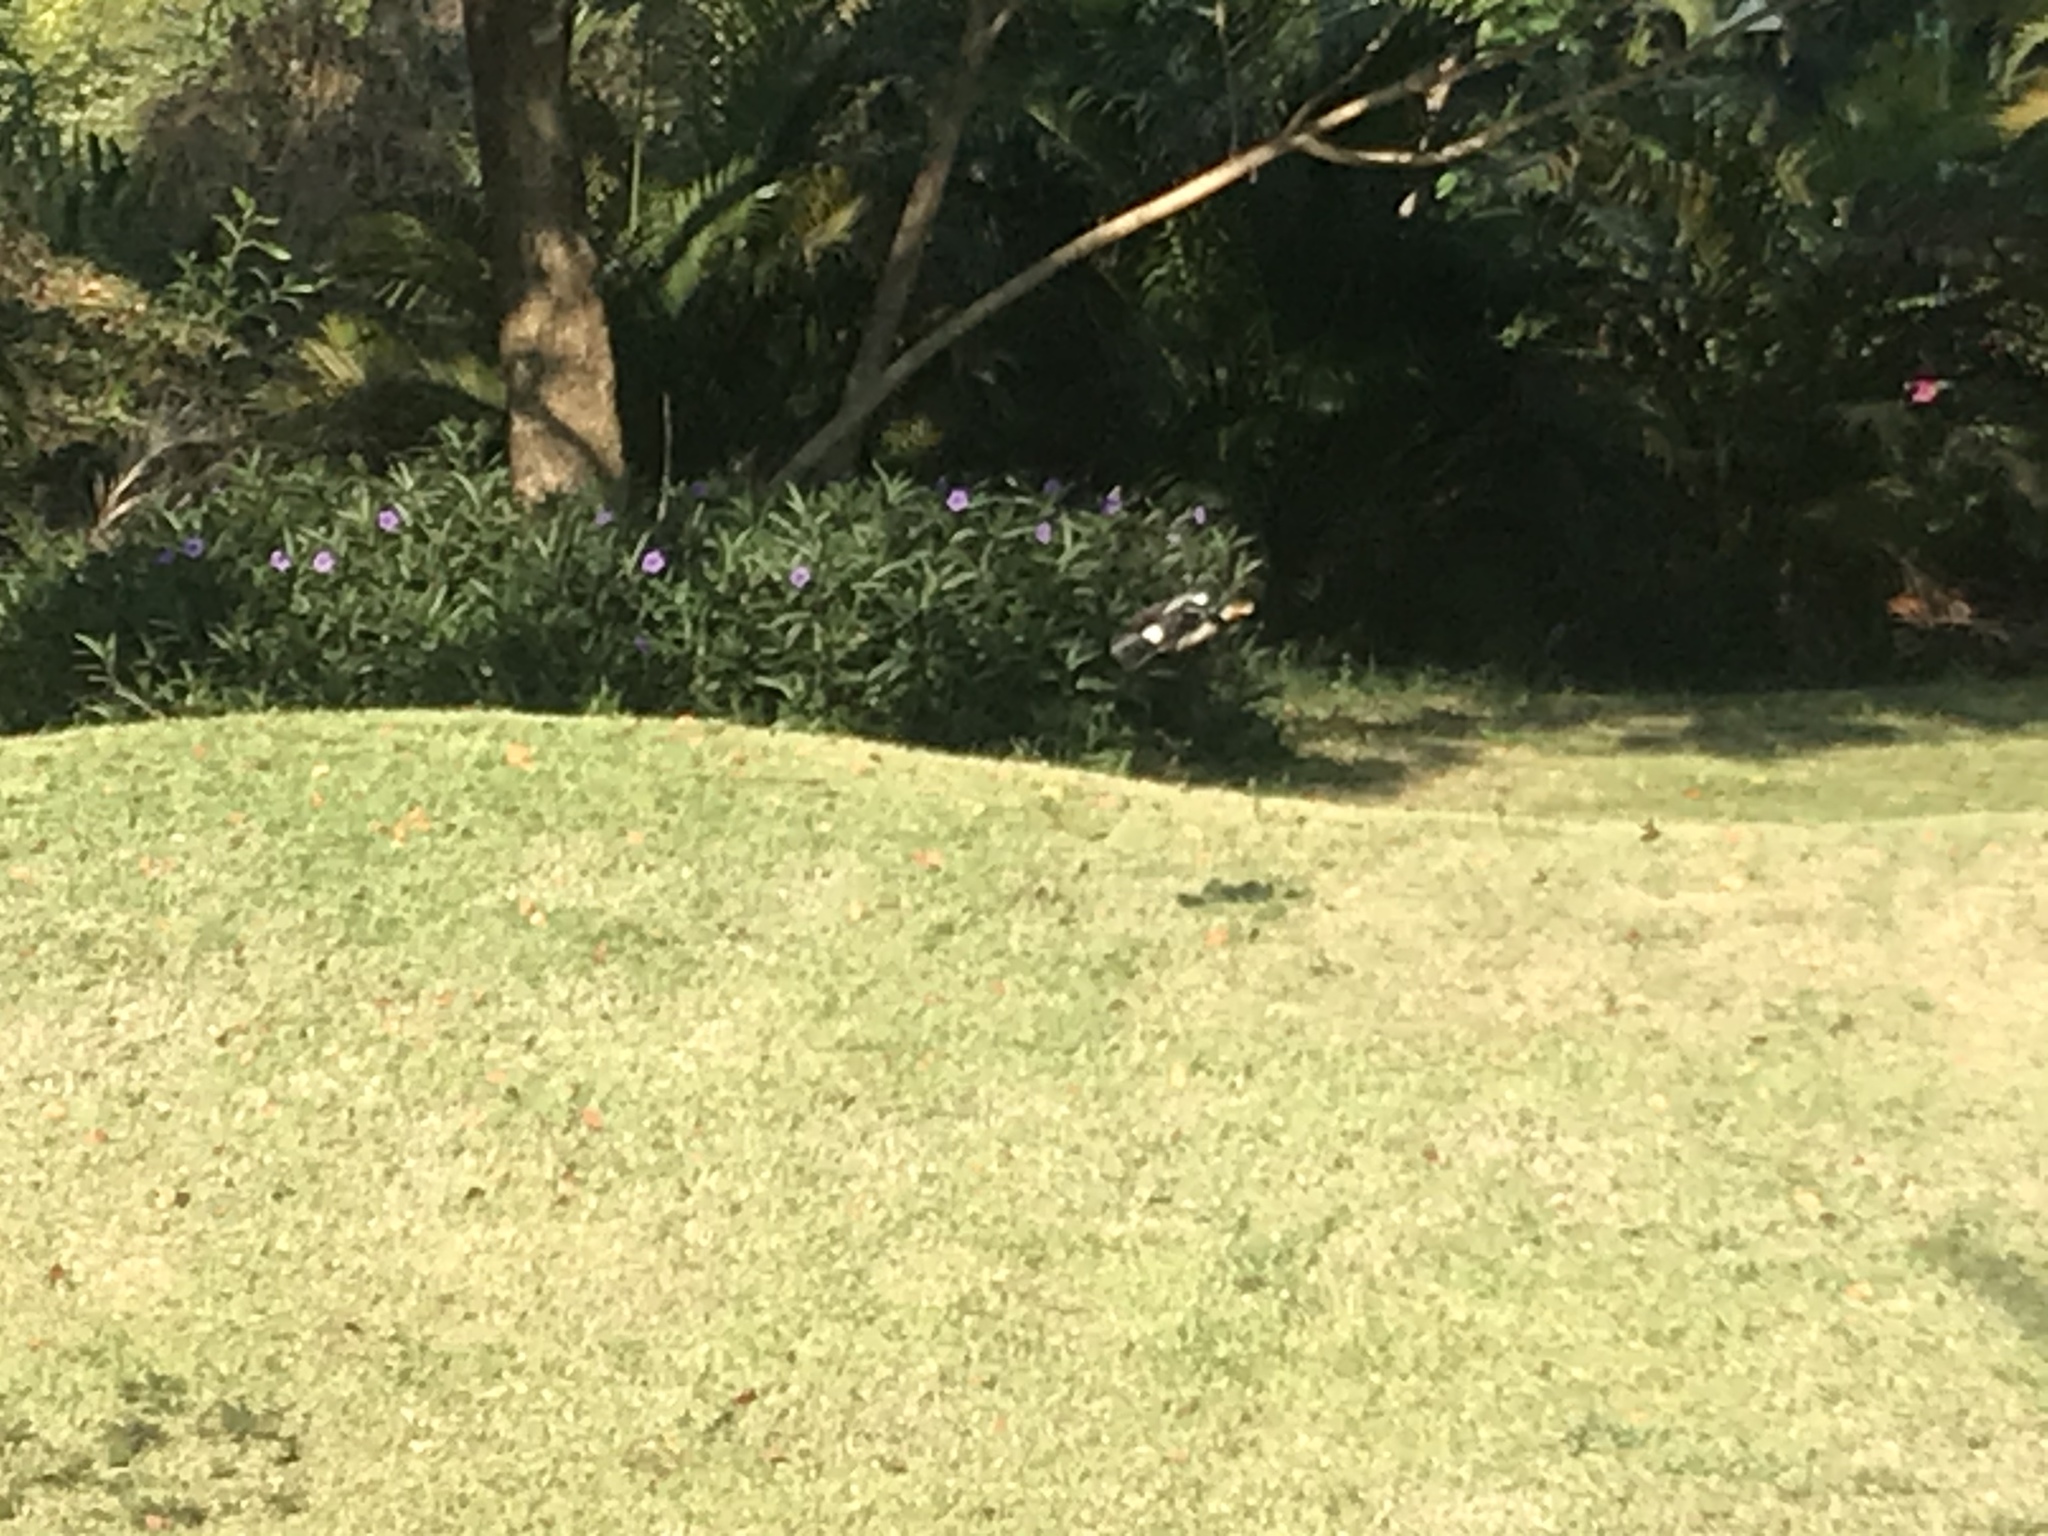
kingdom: Animalia
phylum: Chordata
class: Aves
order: Passeriformes
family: Sturnidae
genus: Gracupica
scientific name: Gracupica contra
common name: Pied myna
